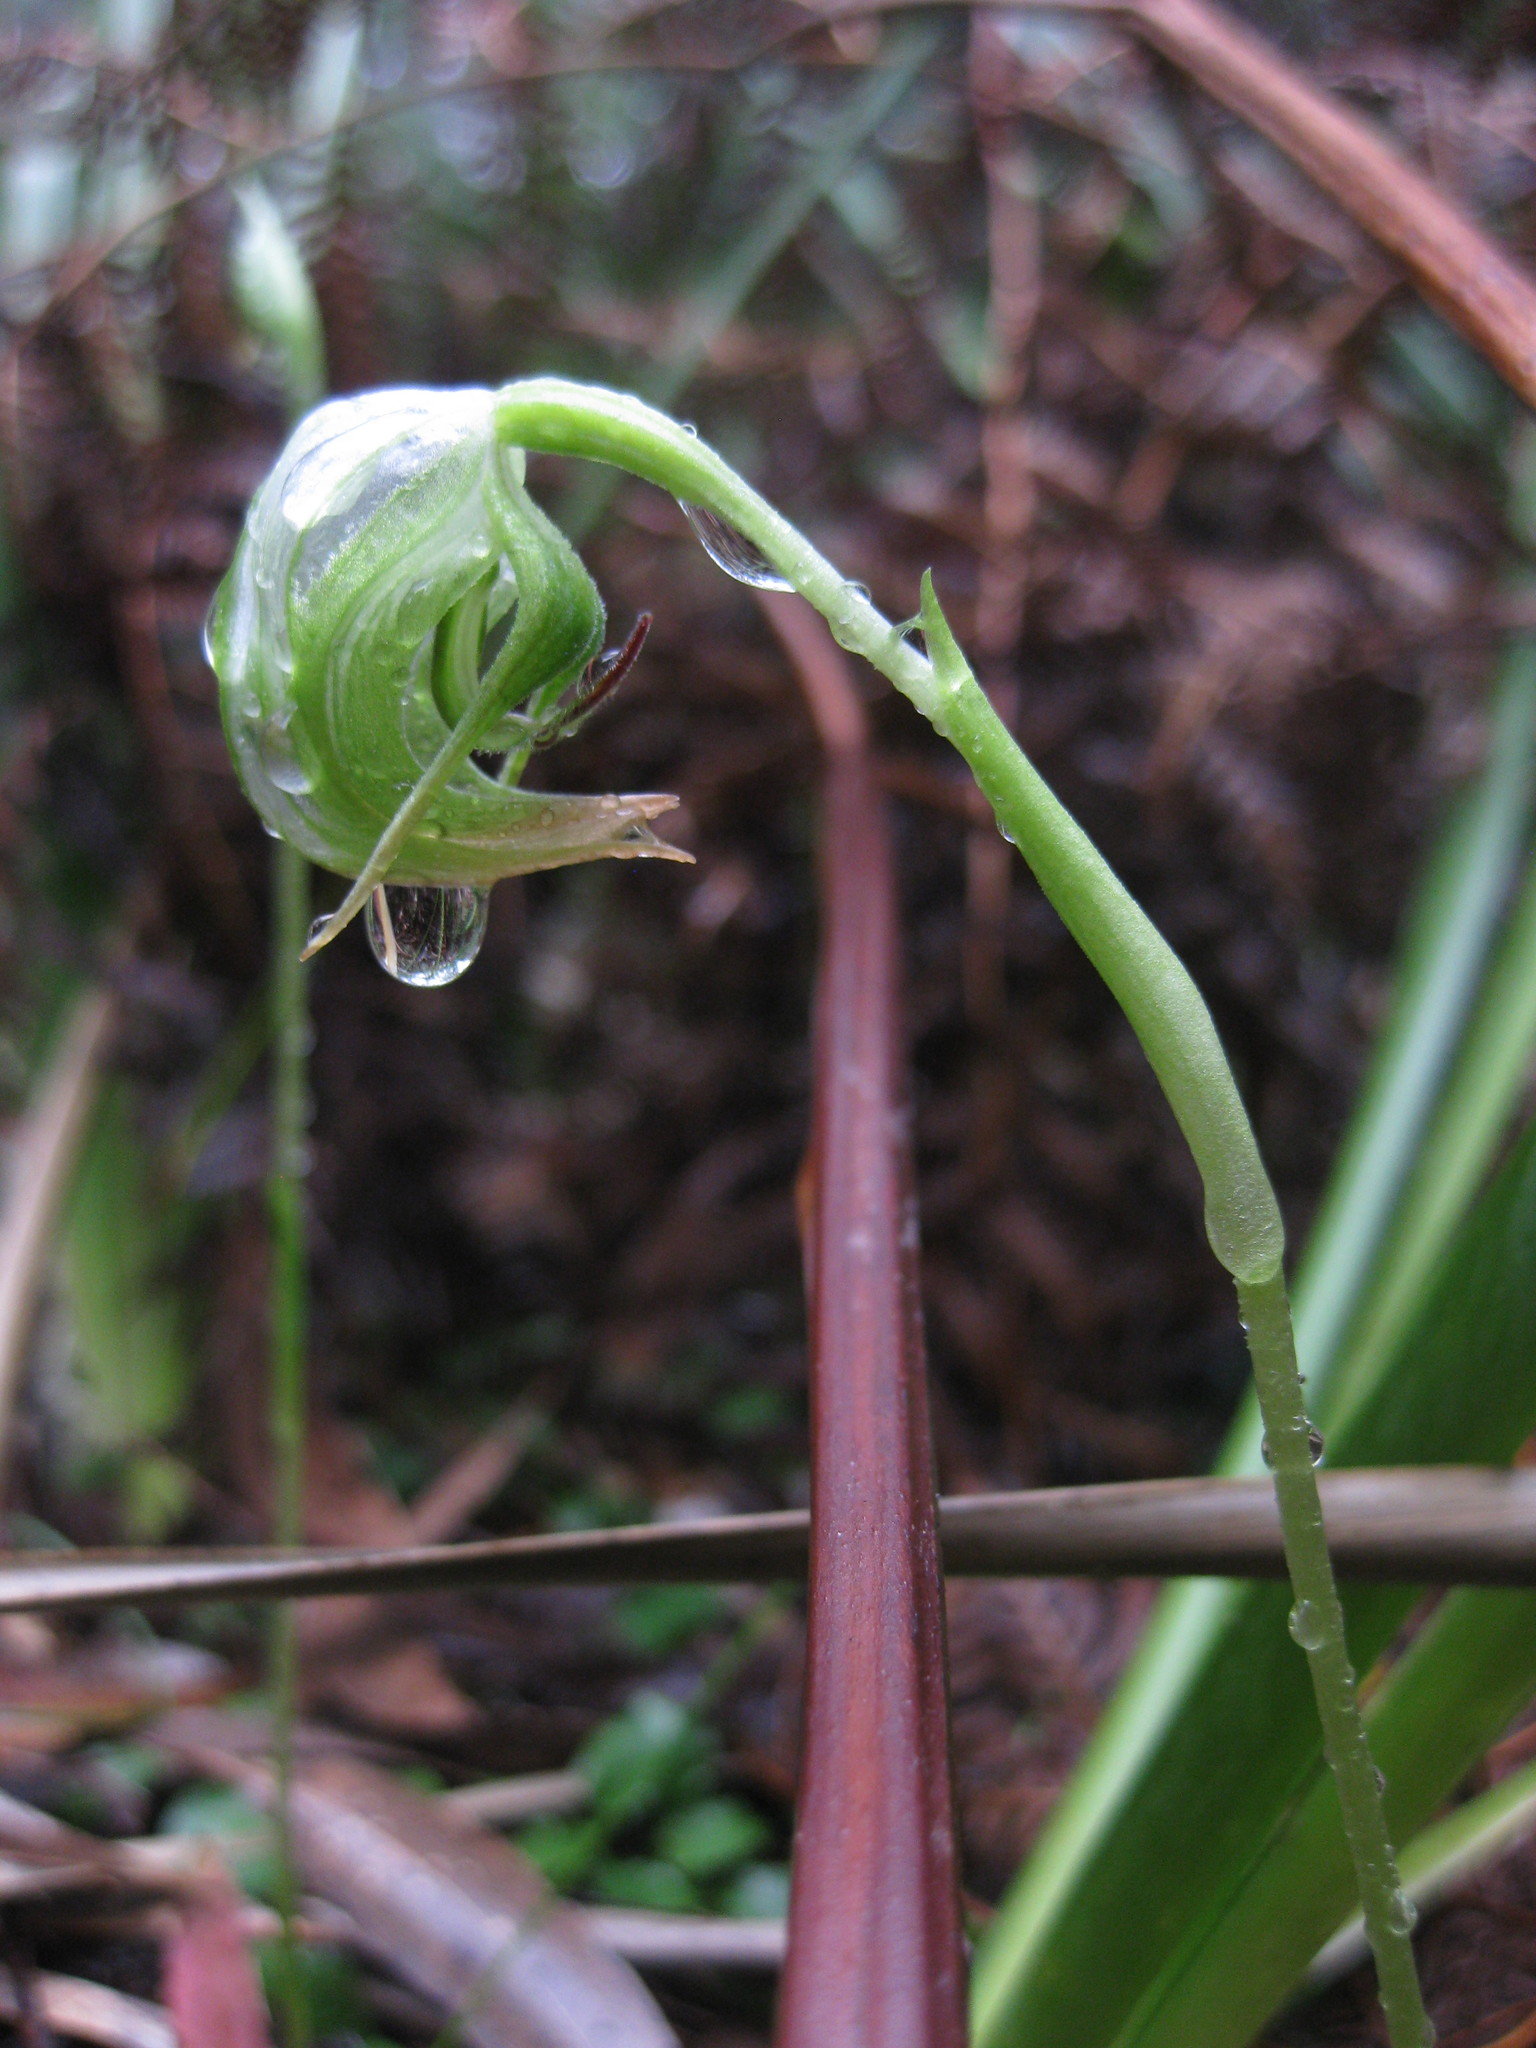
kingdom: Plantae
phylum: Tracheophyta
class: Liliopsida
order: Asparagales
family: Orchidaceae
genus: Pterostylis
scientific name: Pterostylis nutans
